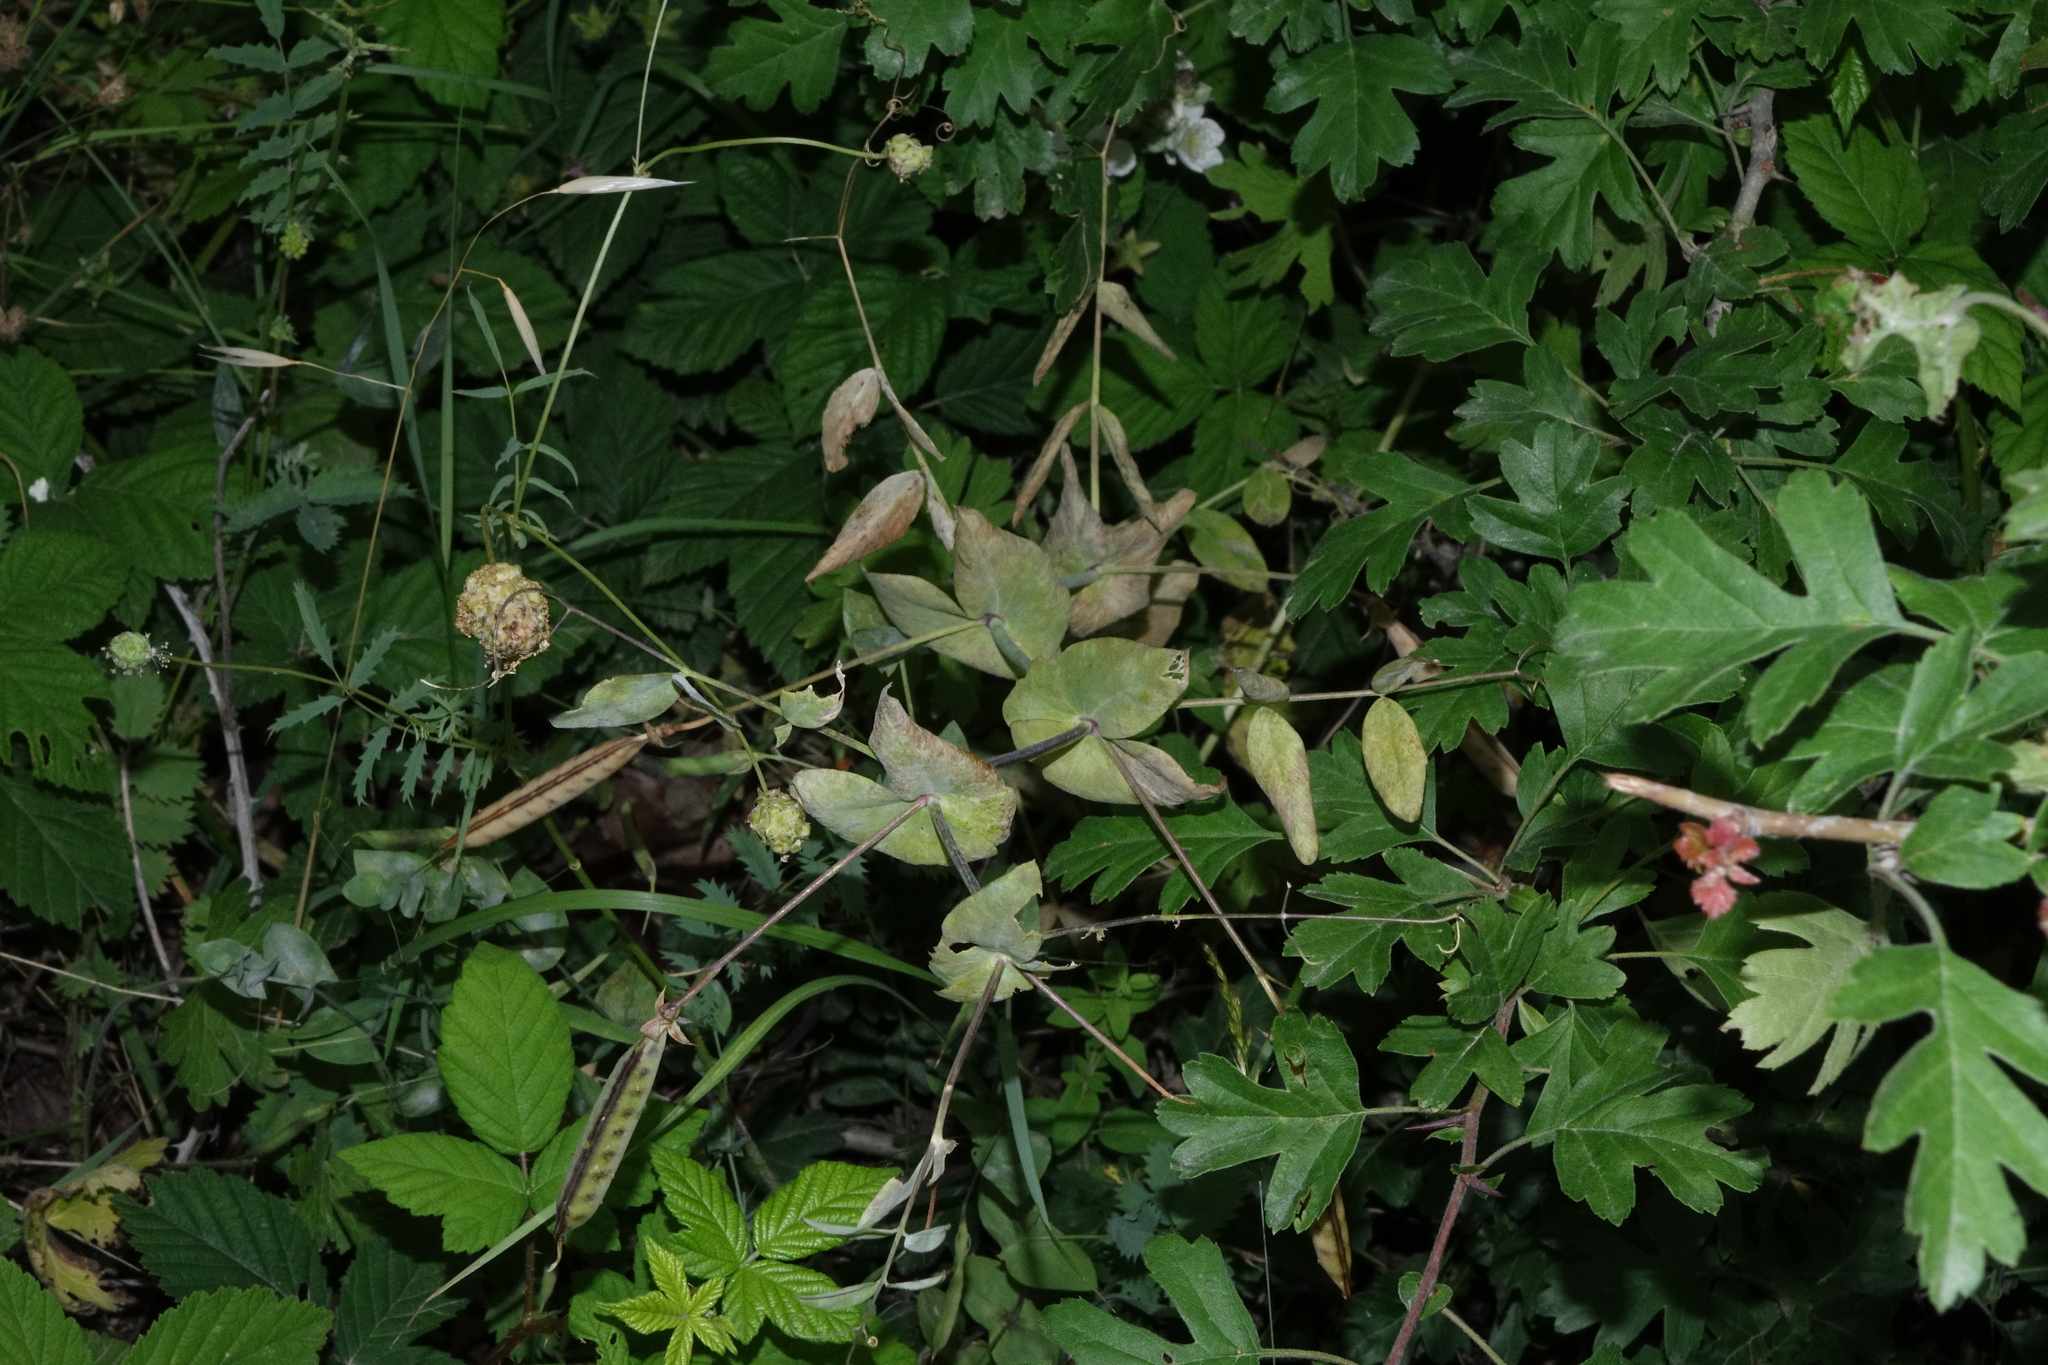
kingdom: Plantae
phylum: Tracheophyta
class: Magnoliopsida
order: Fabales
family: Fabaceae
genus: Lathyrus
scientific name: Lathyrus oleraceus
